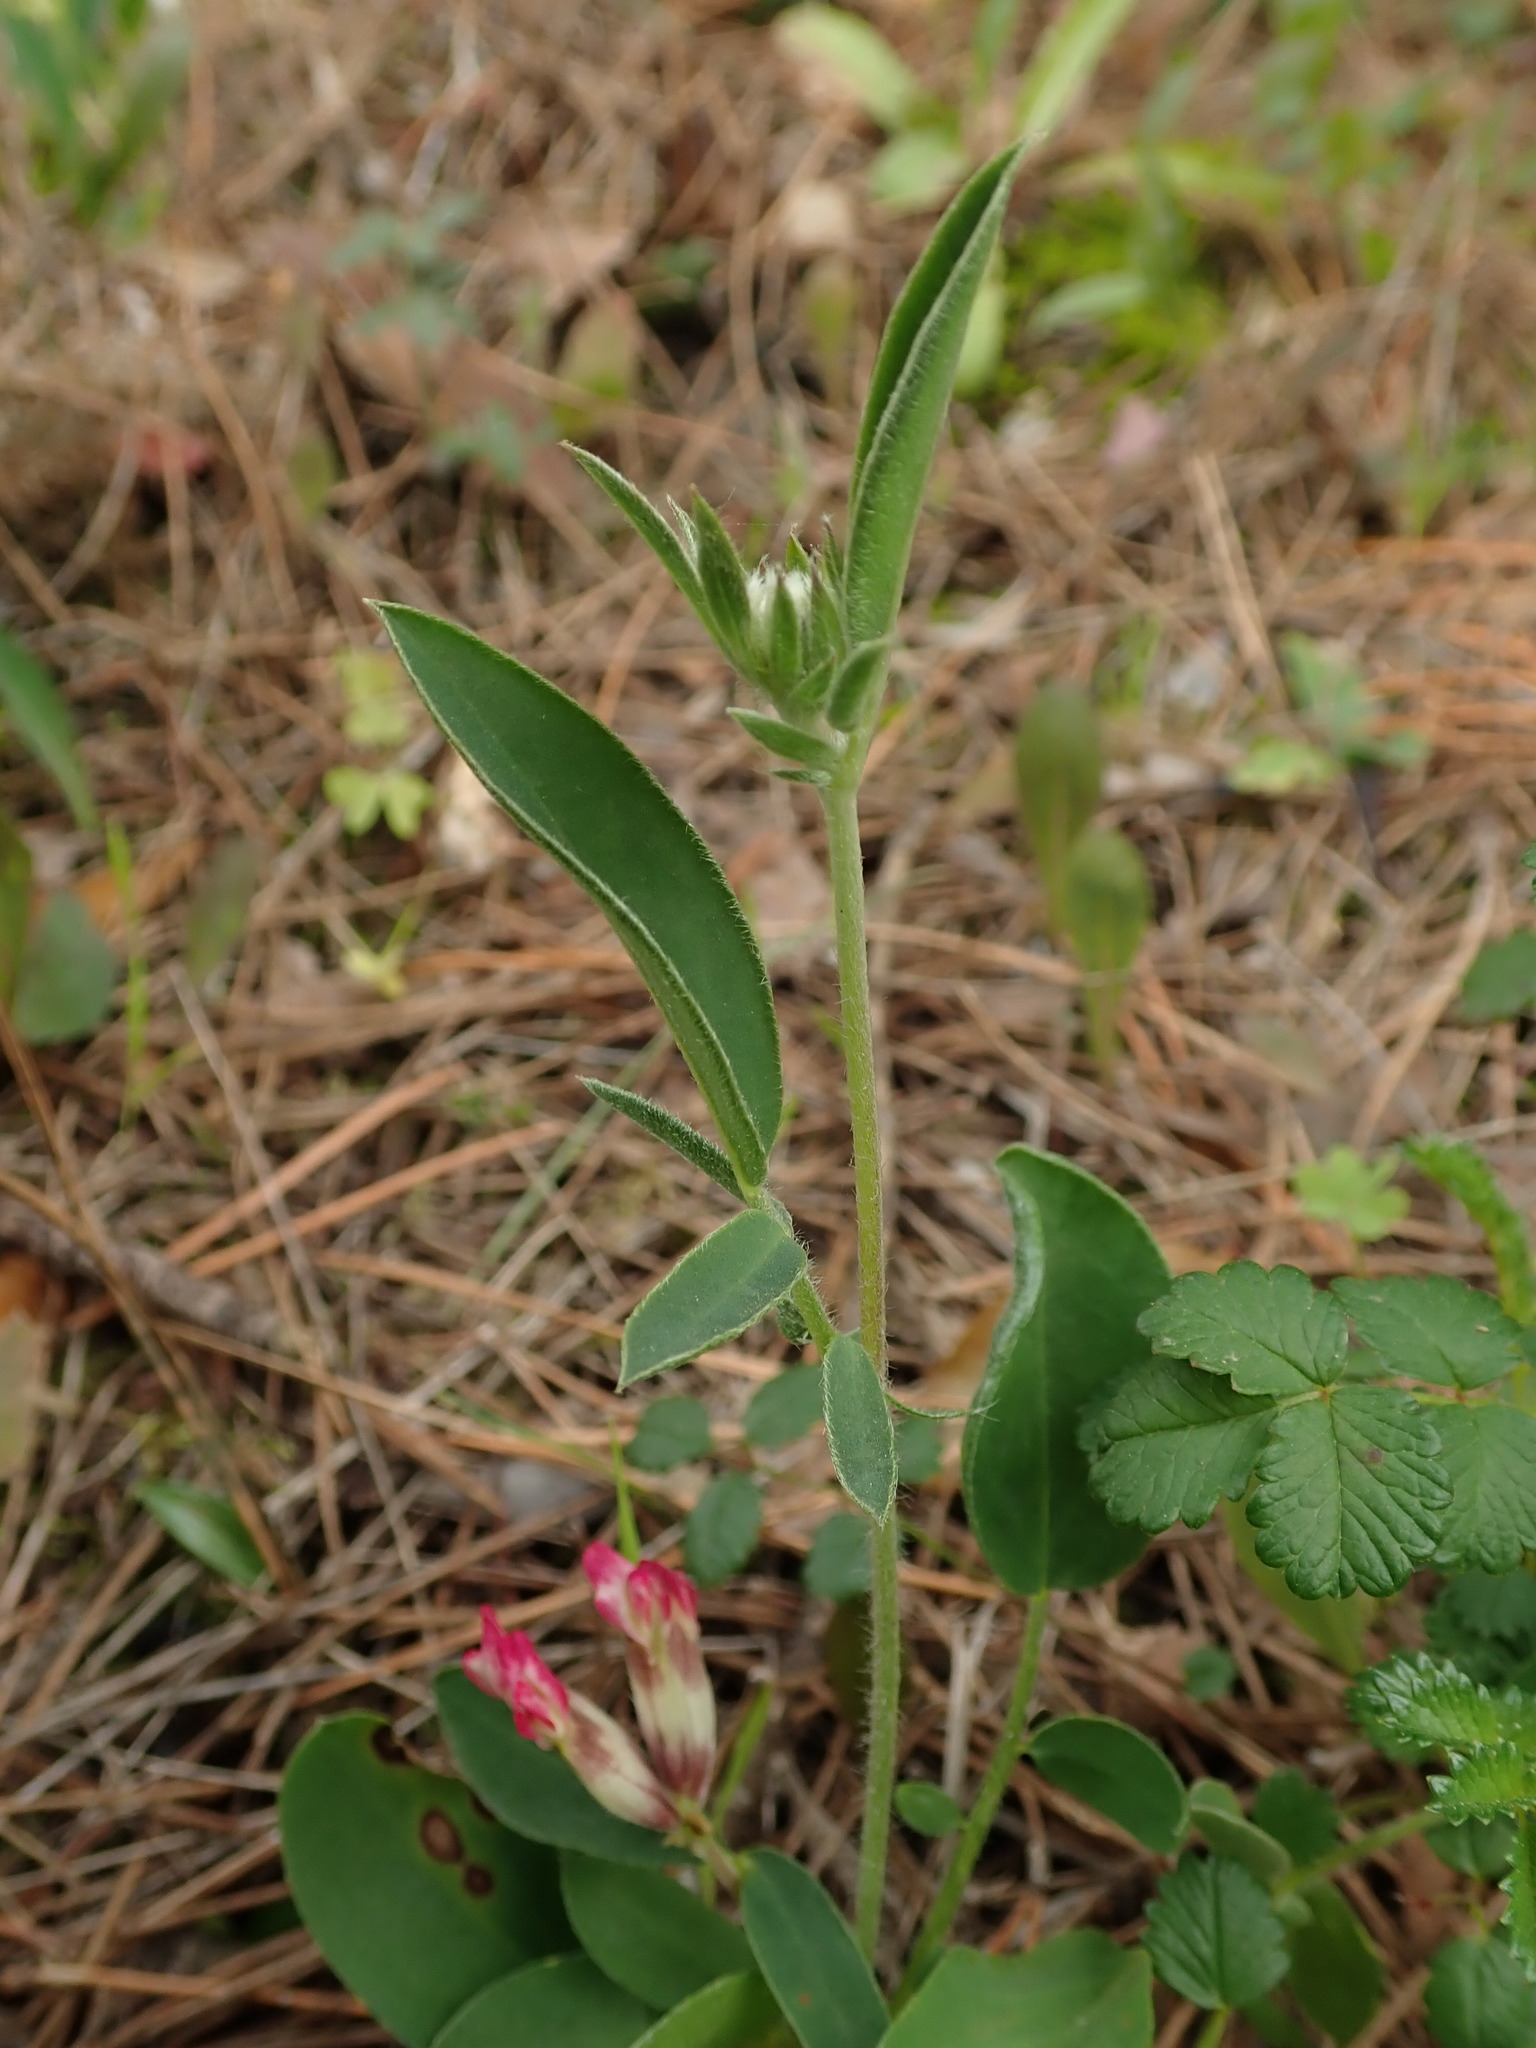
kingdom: Plantae
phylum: Tracheophyta
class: Magnoliopsida
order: Fabales
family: Fabaceae
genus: Anthyllis
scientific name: Anthyllis vulneraria
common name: Kidney vetch
